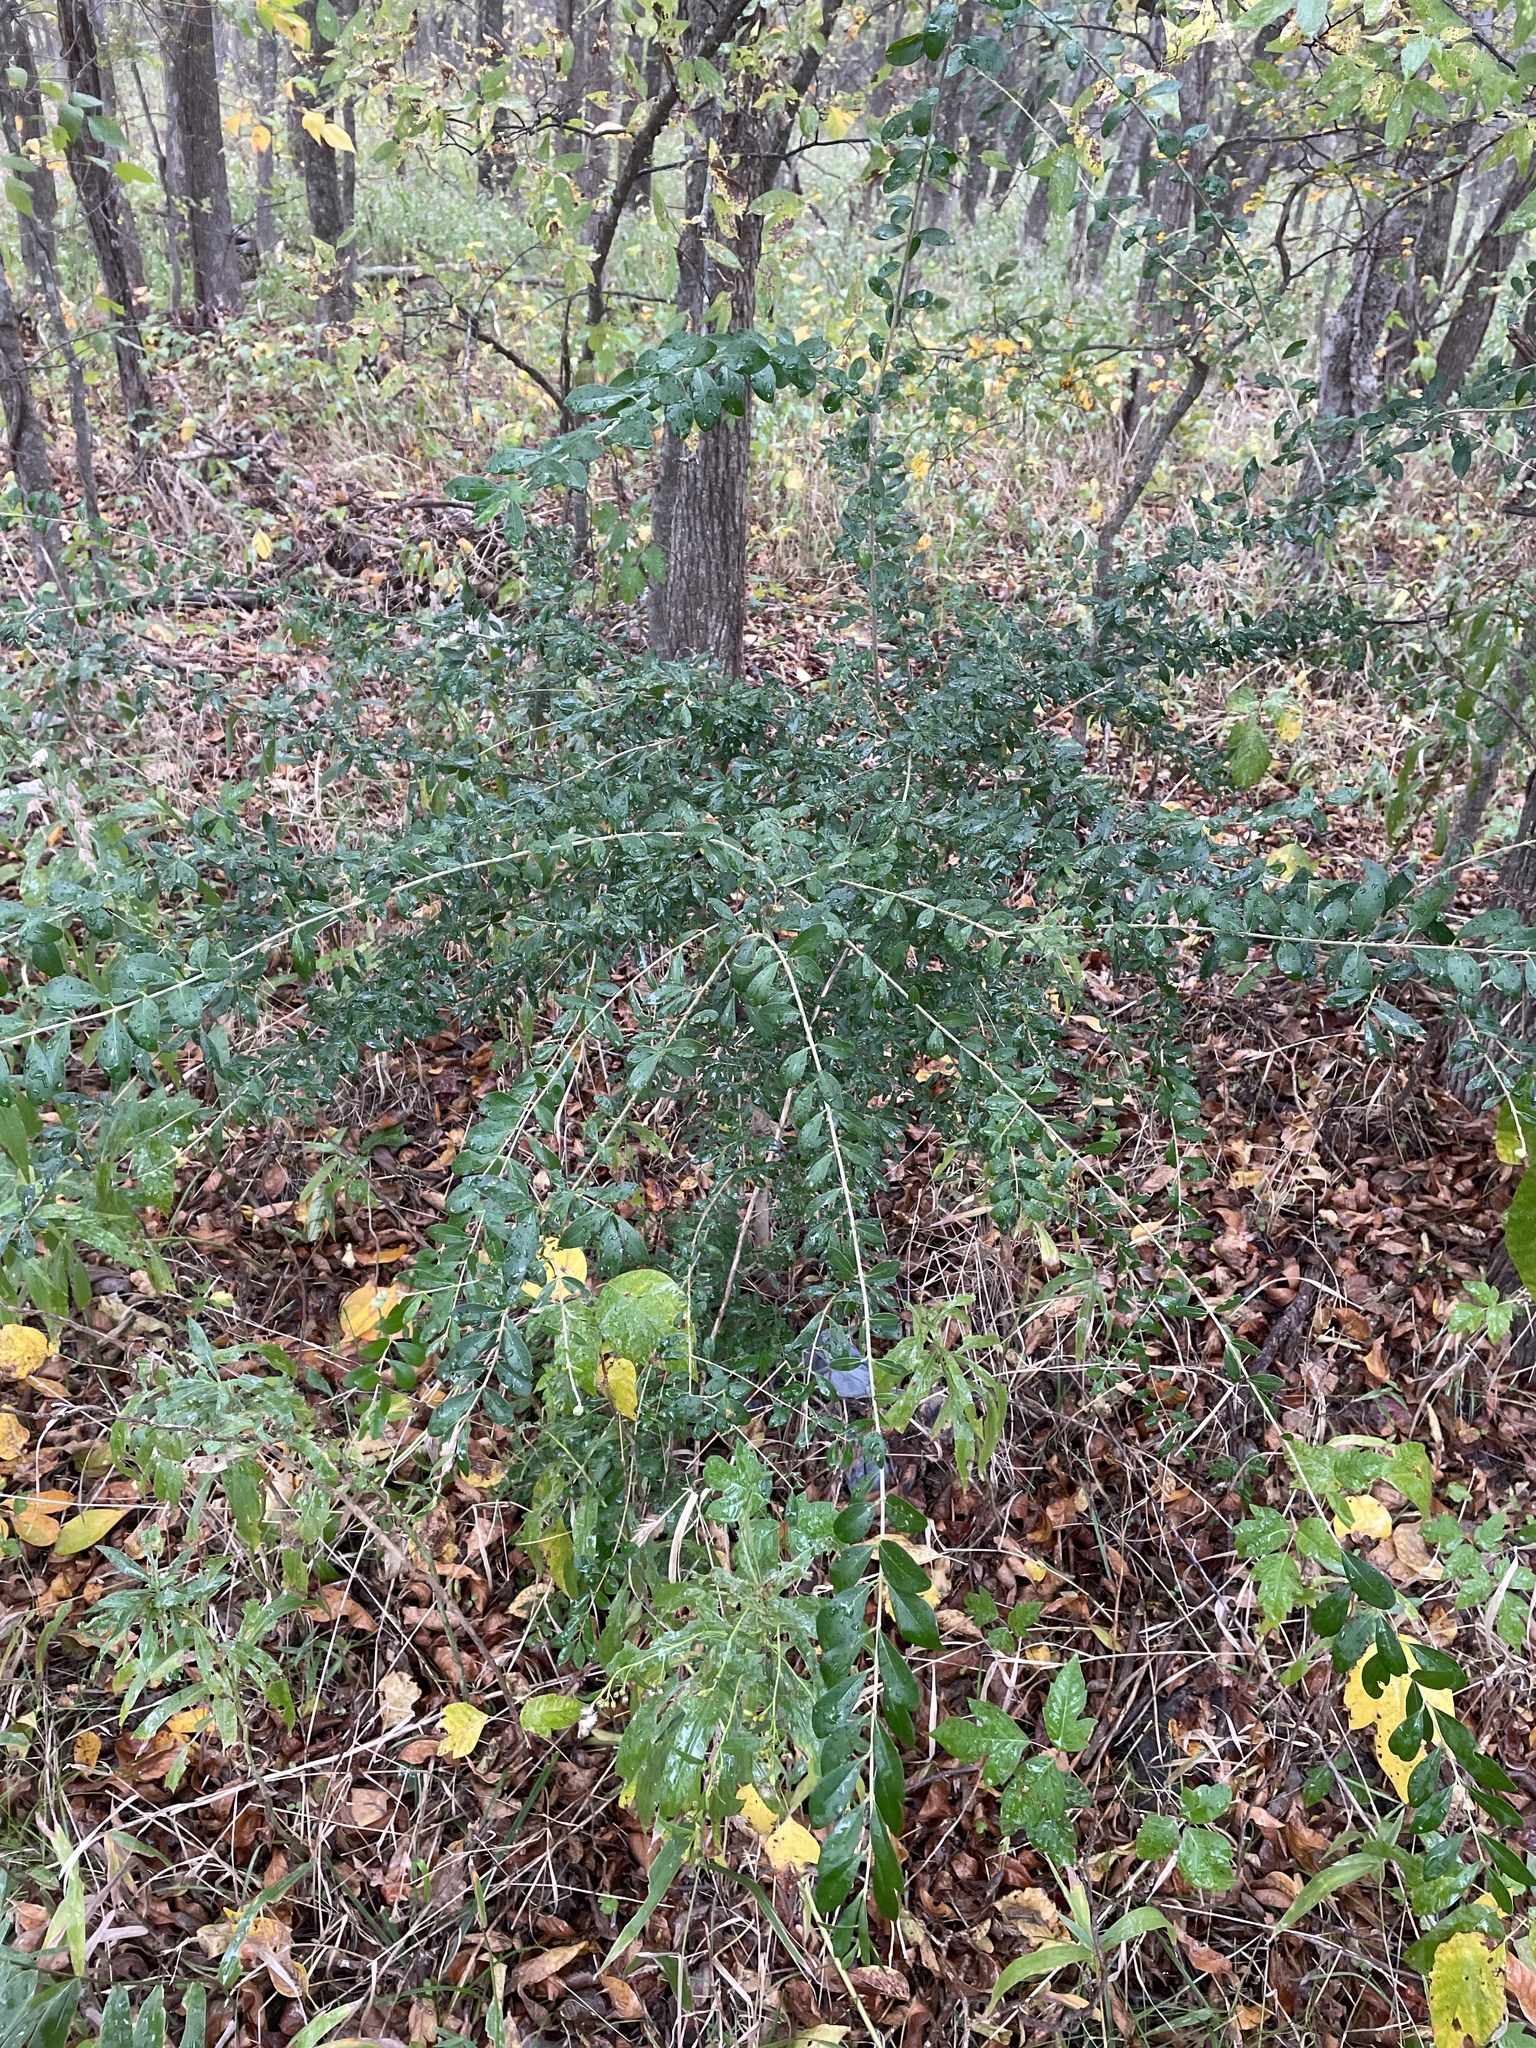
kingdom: Plantae
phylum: Tracheophyta
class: Magnoliopsida
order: Lamiales
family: Oleaceae
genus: Ligustrum
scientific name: Ligustrum quihoui
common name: Waxyleaf privet
